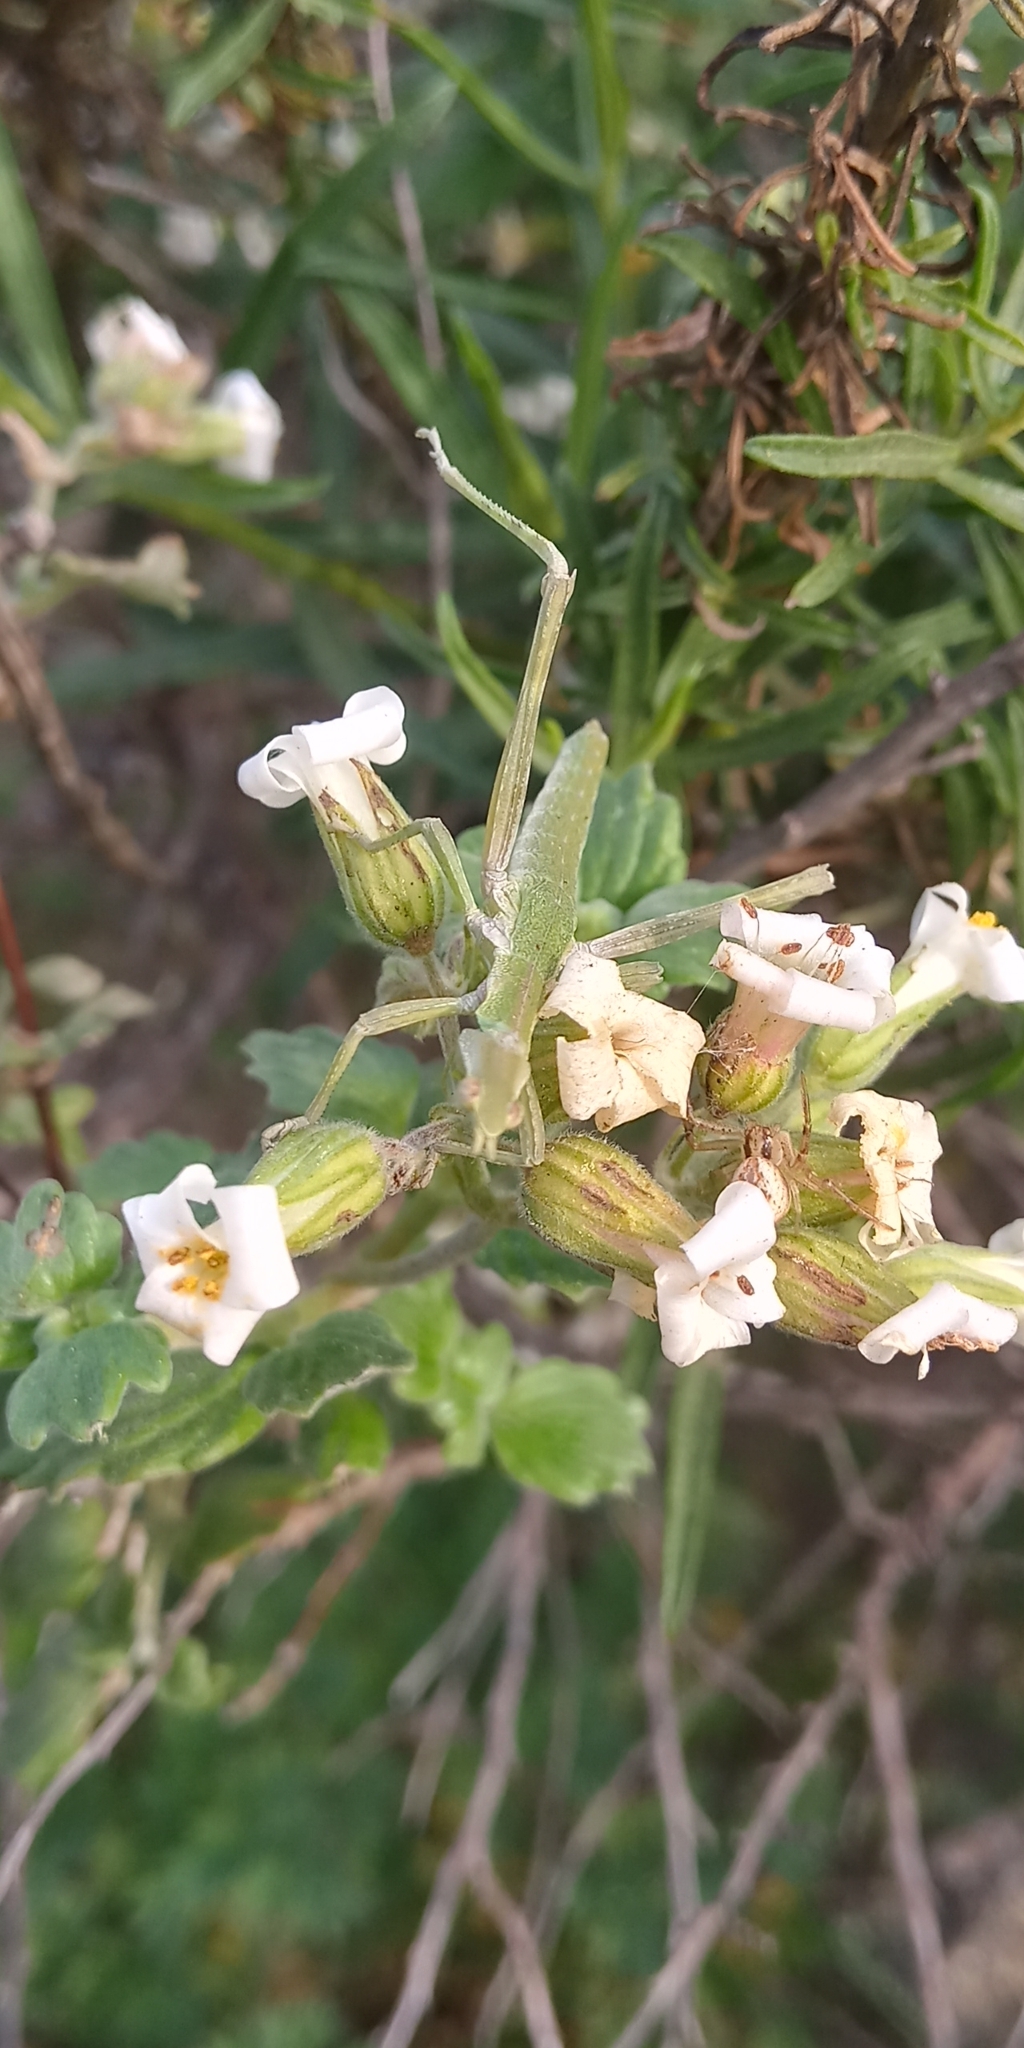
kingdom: Plantae
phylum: Tracheophyta
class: Magnoliopsida
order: Geraniales
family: Vivianiaceae
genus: Viviania
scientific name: Viviania crenata
